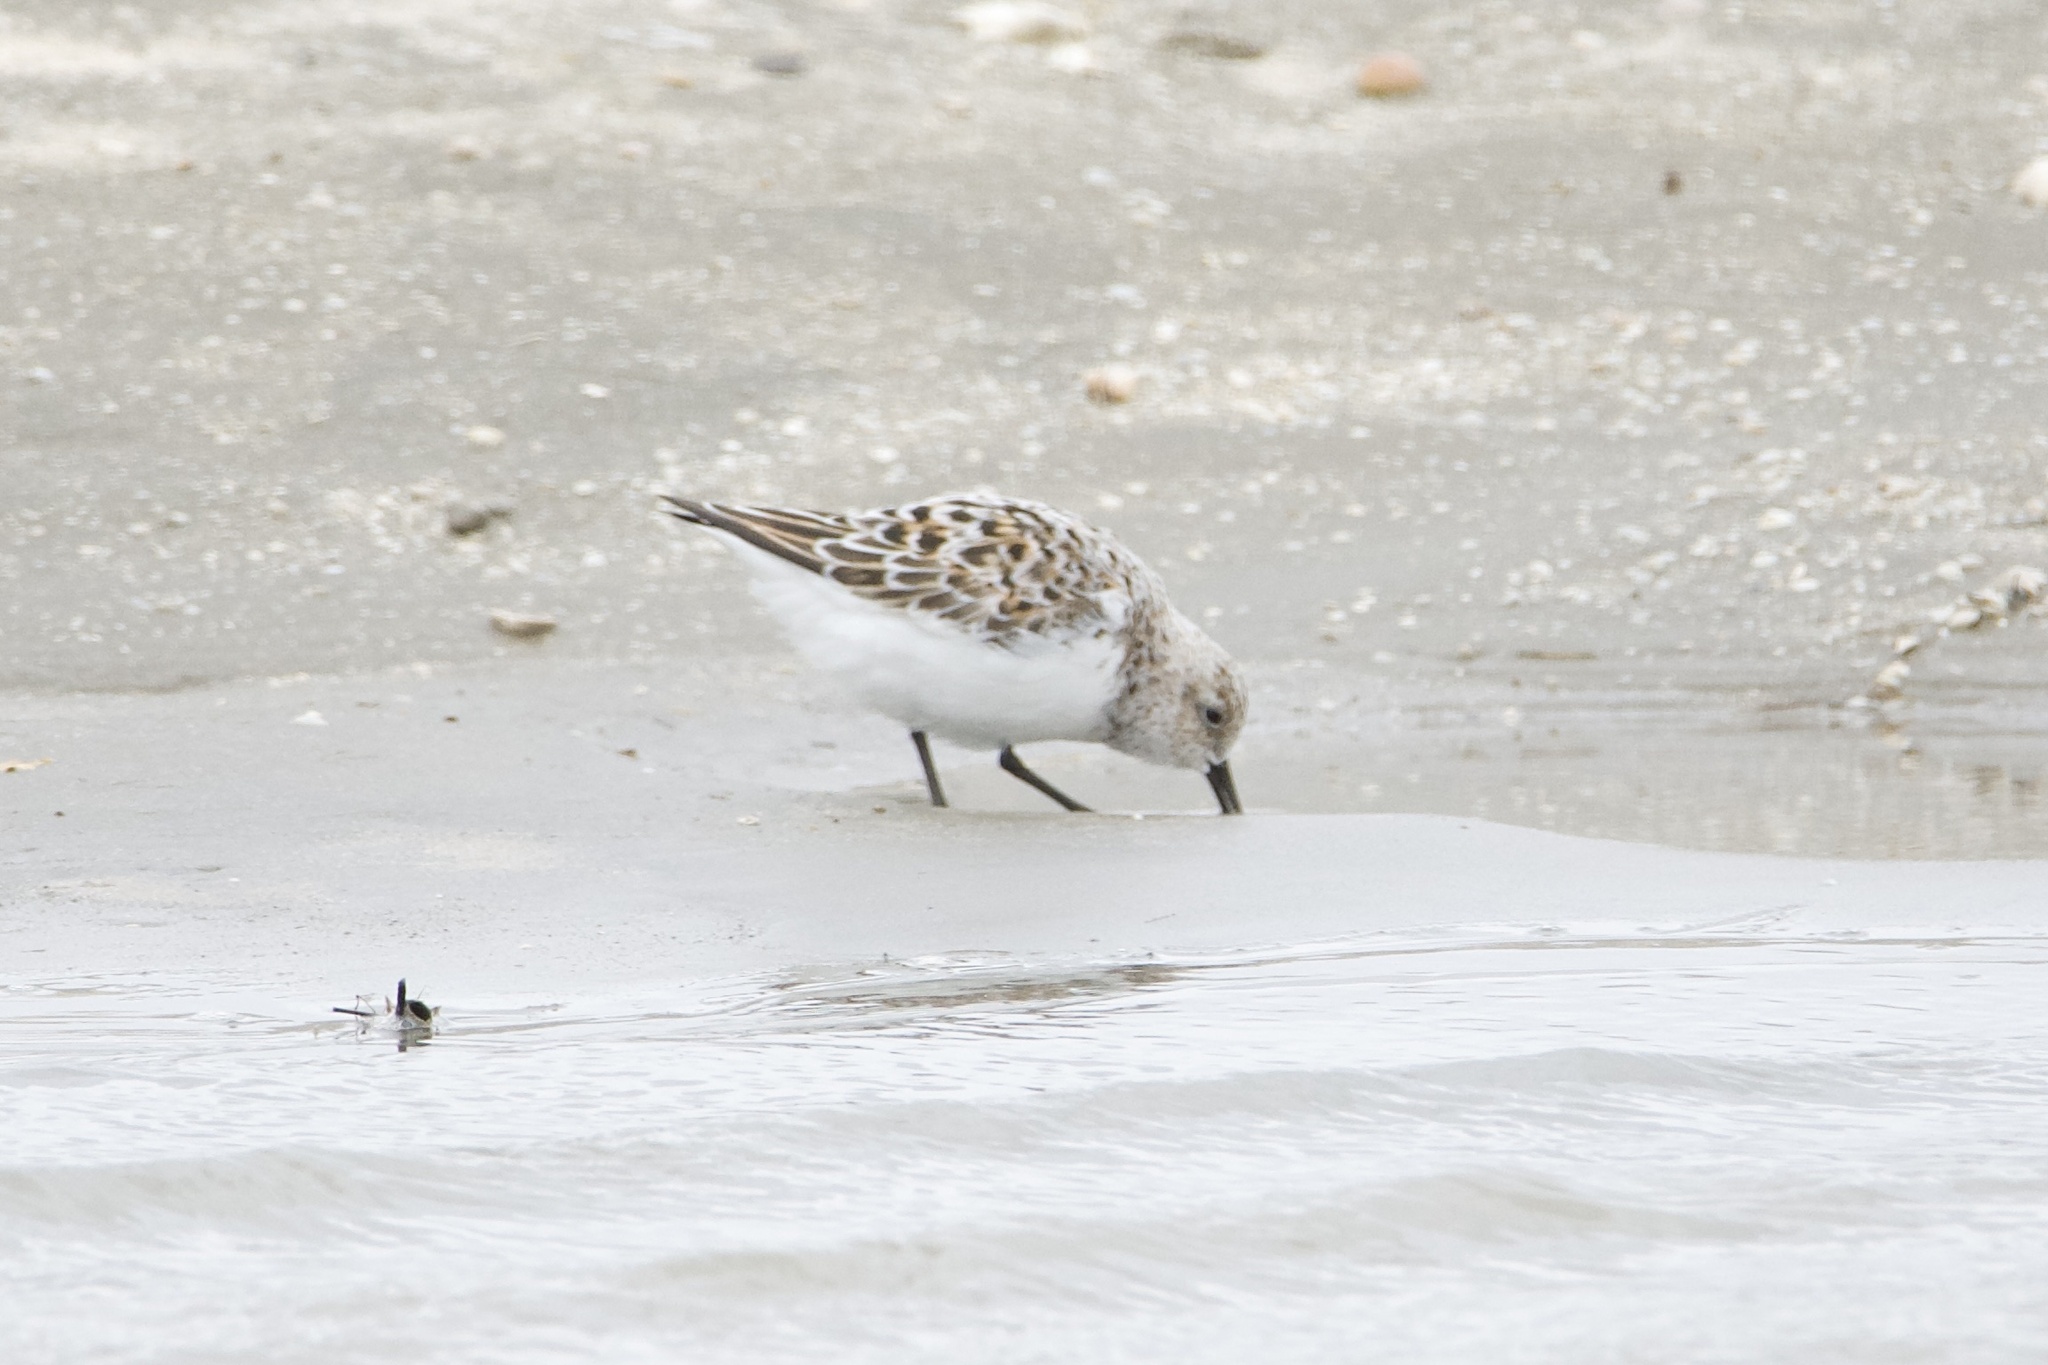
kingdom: Animalia
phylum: Chordata
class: Aves
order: Charadriiformes
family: Scolopacidae
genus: Calidris
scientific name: Calidris alba
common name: Sanderling
